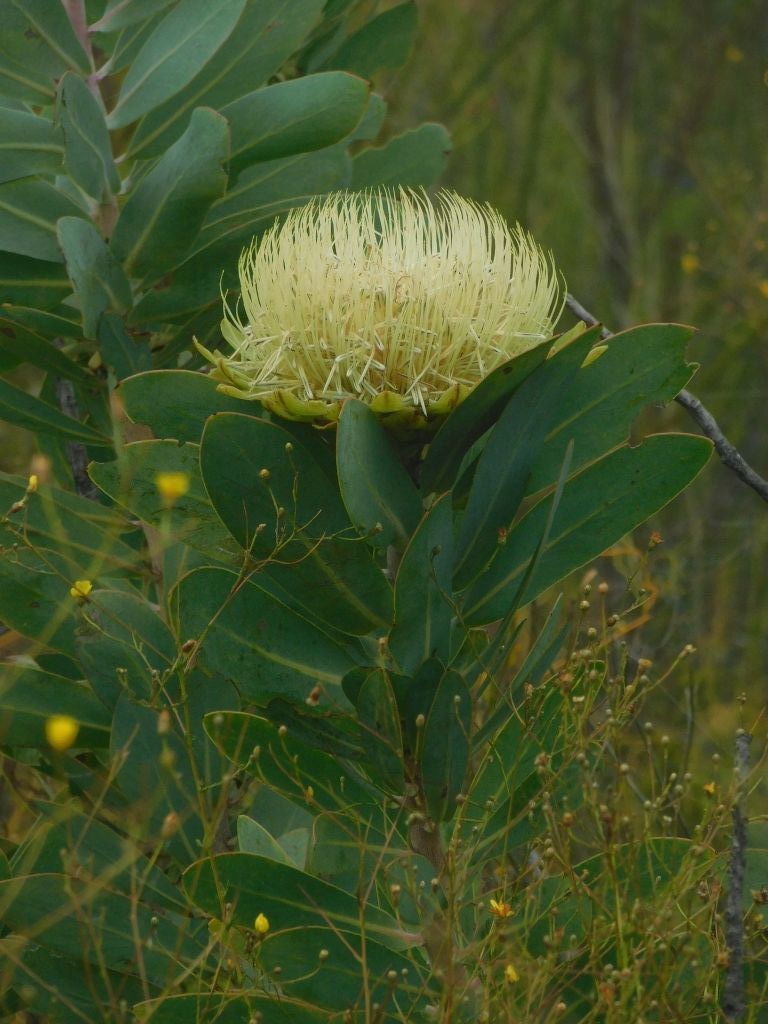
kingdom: Plantae
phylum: Tracheophyta
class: Magnoliopsida
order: Proteales
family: Proteaceae
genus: Protea
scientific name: Protea nitida
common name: Tree protea
